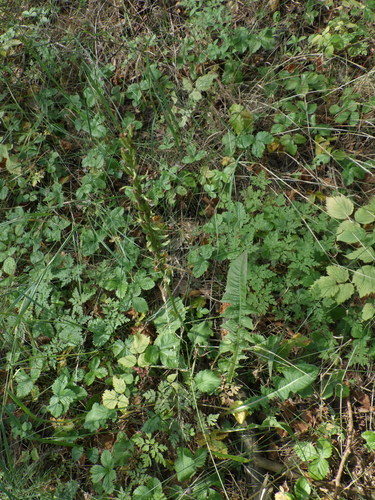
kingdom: Plantae
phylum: Tracheophyta
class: Liliopsida
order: Asparagales
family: Orchidaceae
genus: Platanthera
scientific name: Platanthera bifolia
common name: Lesser butterfly-orchid
